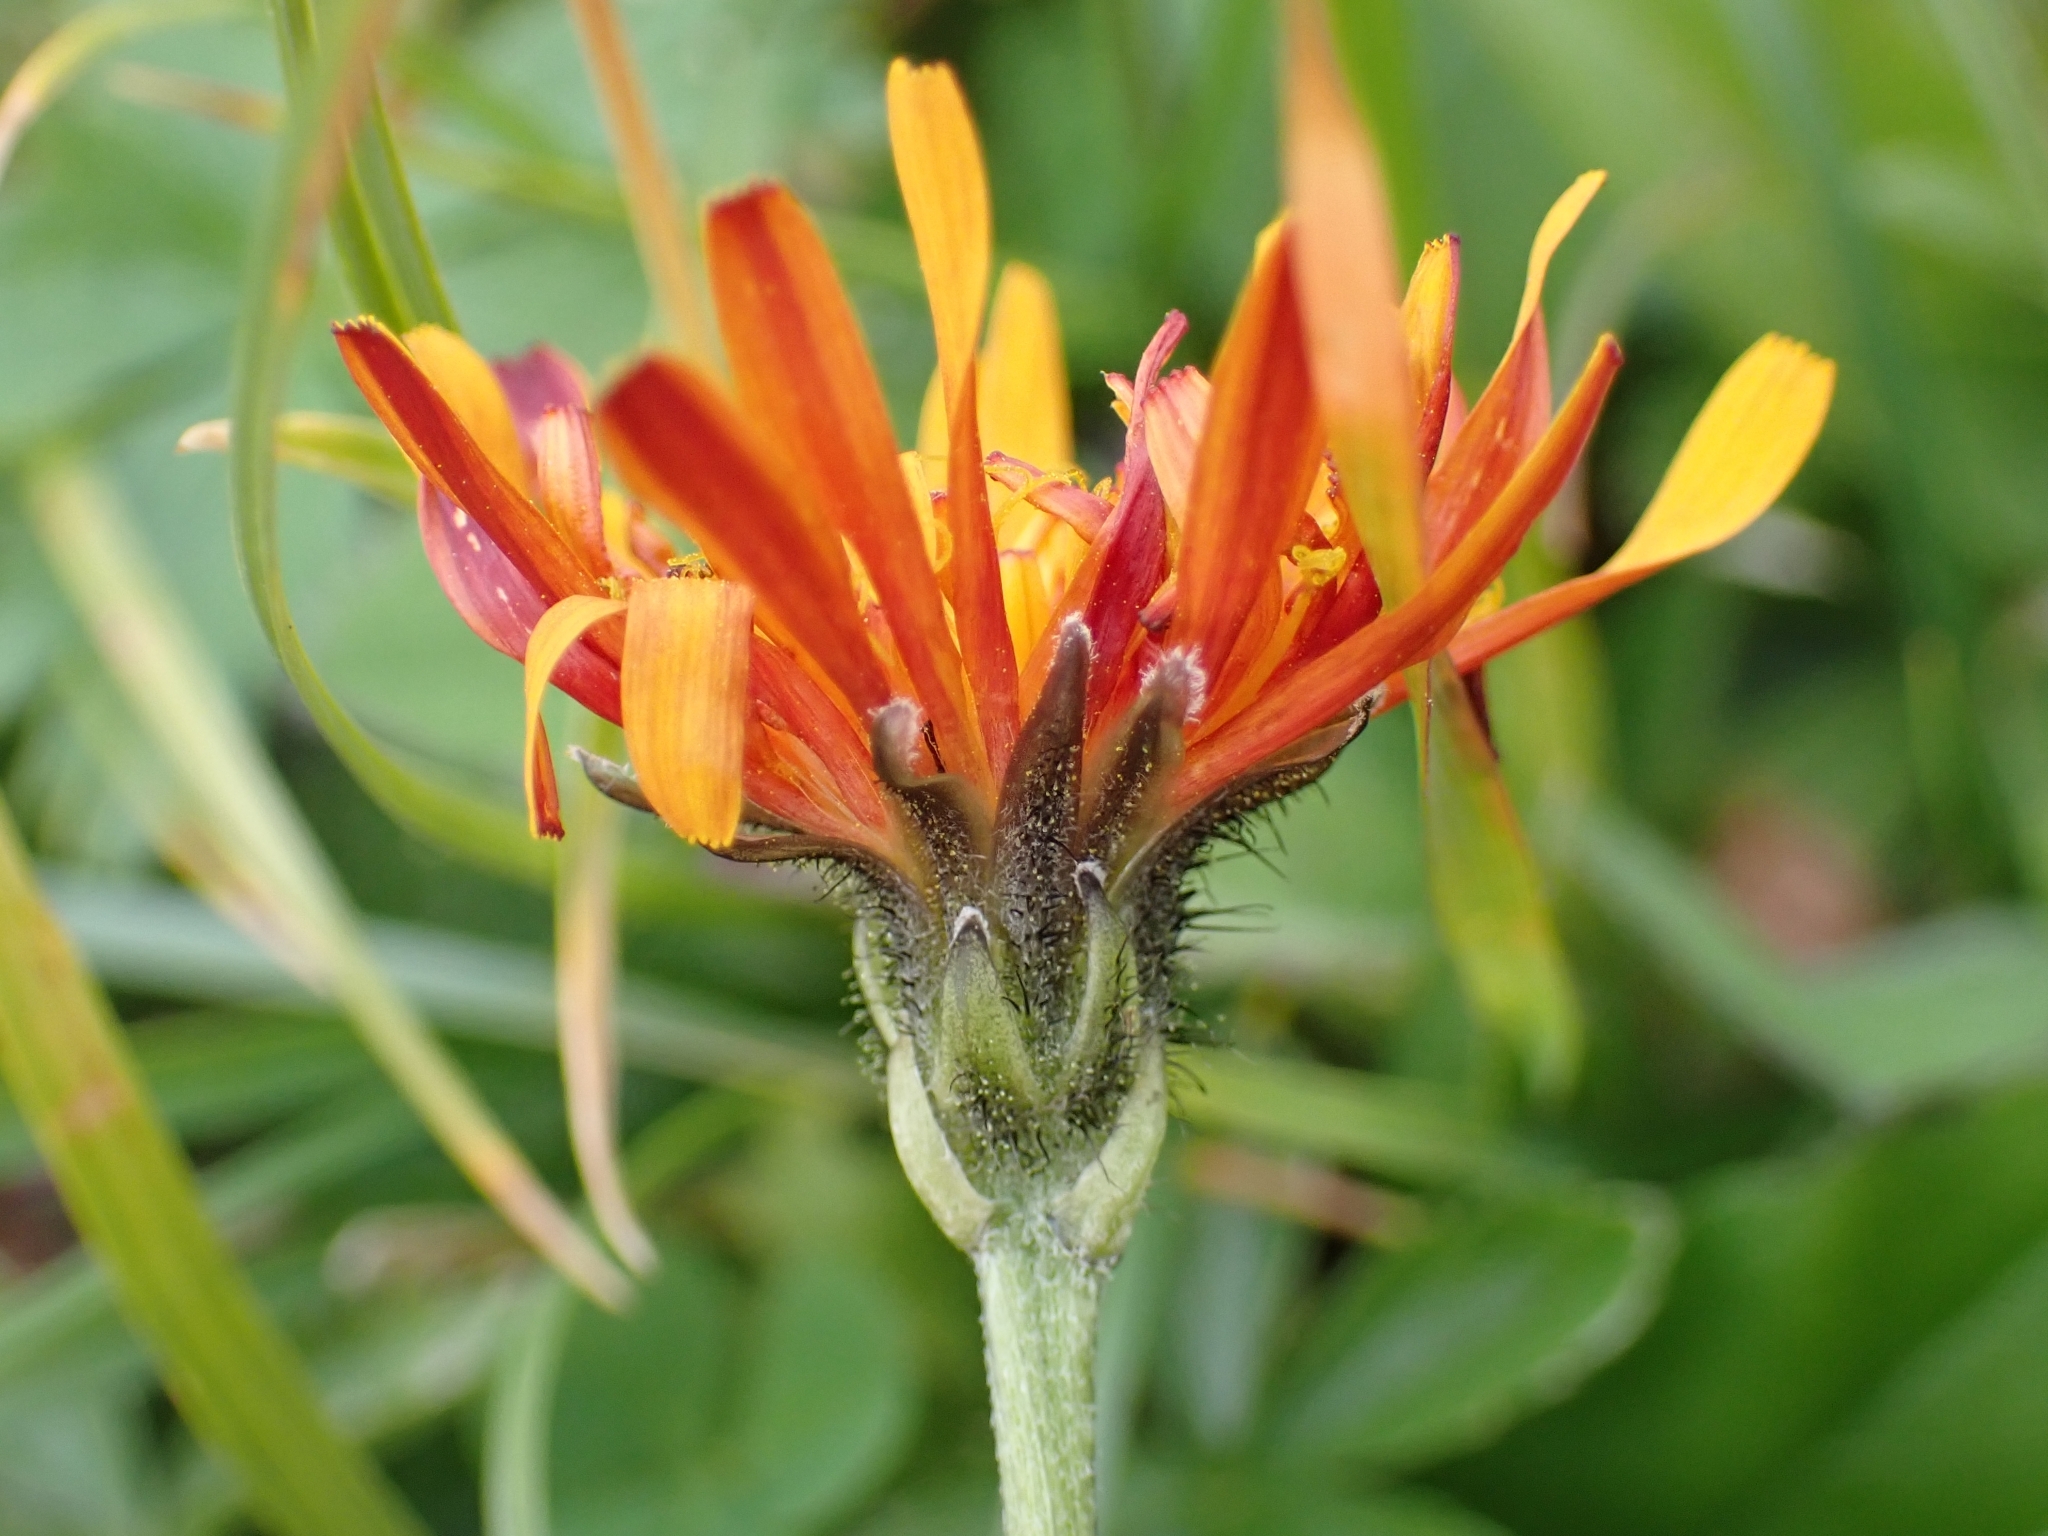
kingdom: Plantae
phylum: Tracheophyta
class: Magnoliopsida
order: Asterales
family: Asteraceae
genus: Crepis
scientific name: Crepis aurea
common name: Golden hawk's-beard
